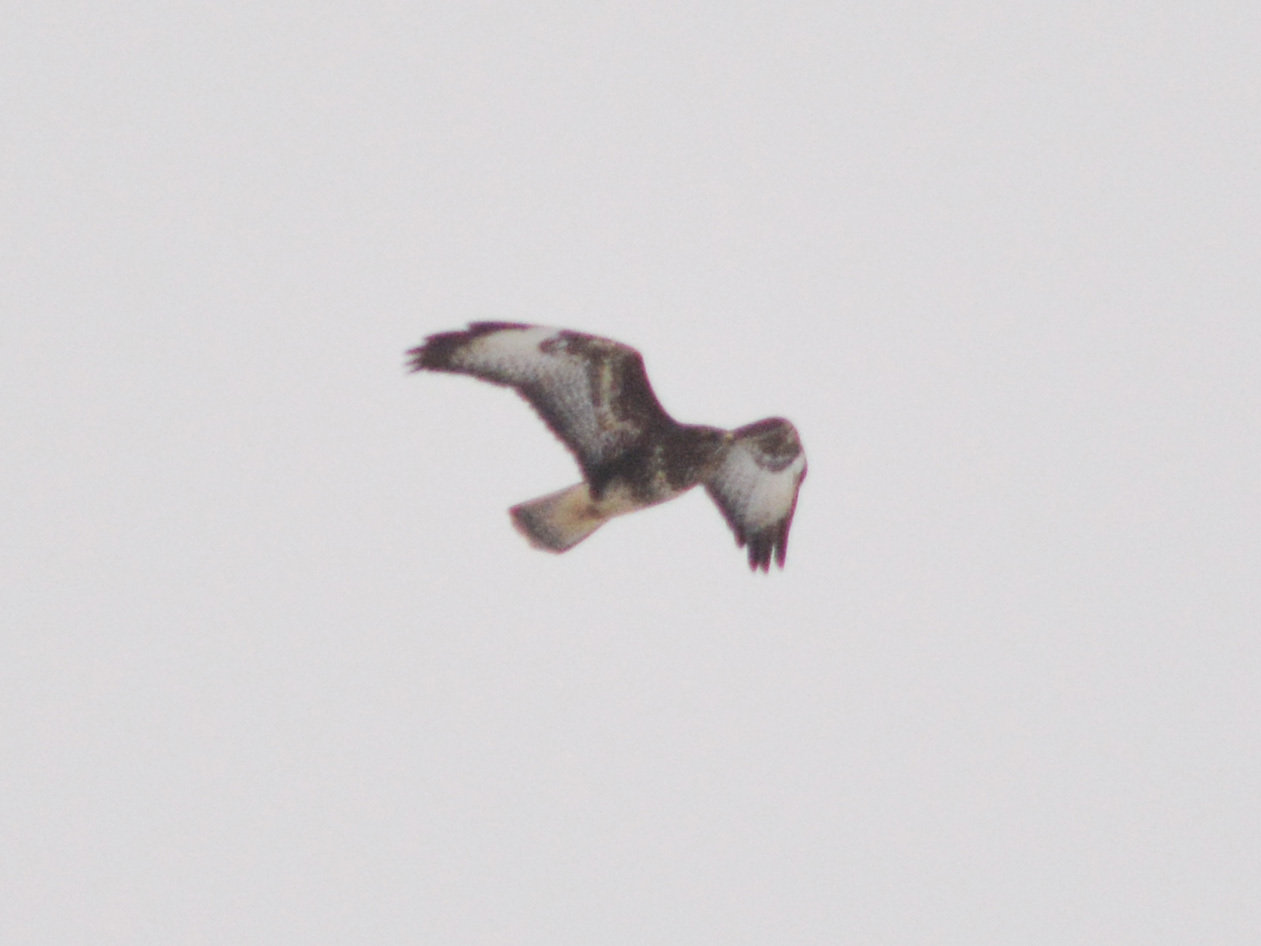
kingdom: Animalia
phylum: Chordata
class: Aves
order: Accipitriformes
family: Accipitridae
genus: Buteo
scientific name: Buteo buteo
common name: Common buzzard
